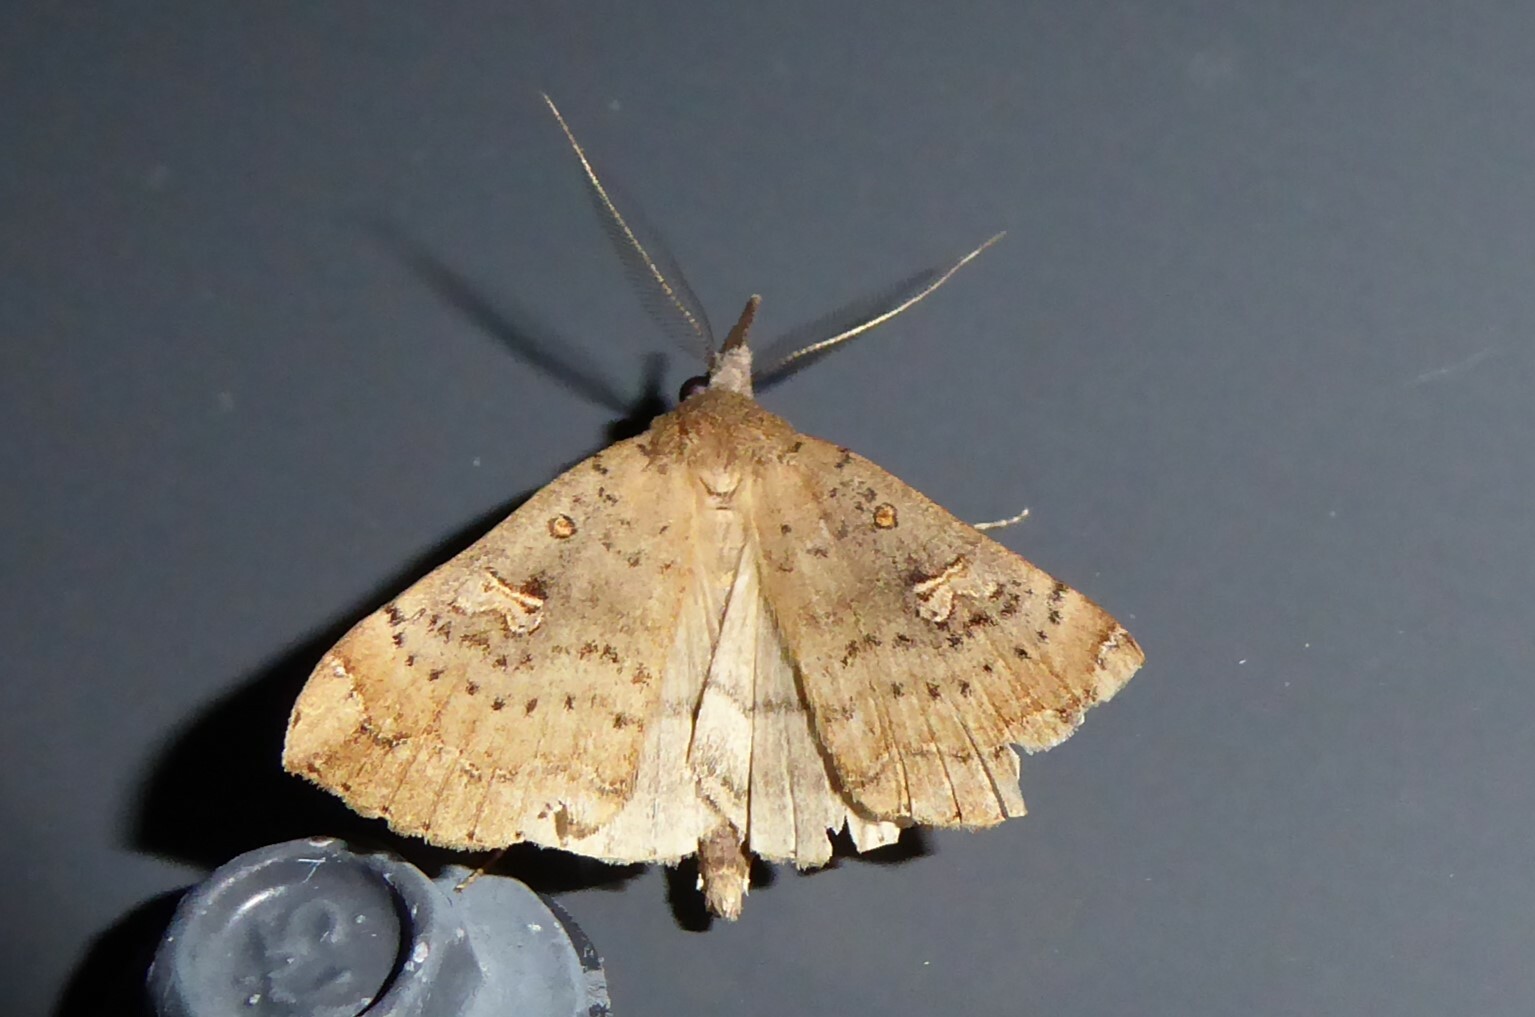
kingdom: Animalia
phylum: Arthropoda
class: Insecta
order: Lepidoptera
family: Erebidae
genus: Rhapsa
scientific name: Rhapsa scotosialis
